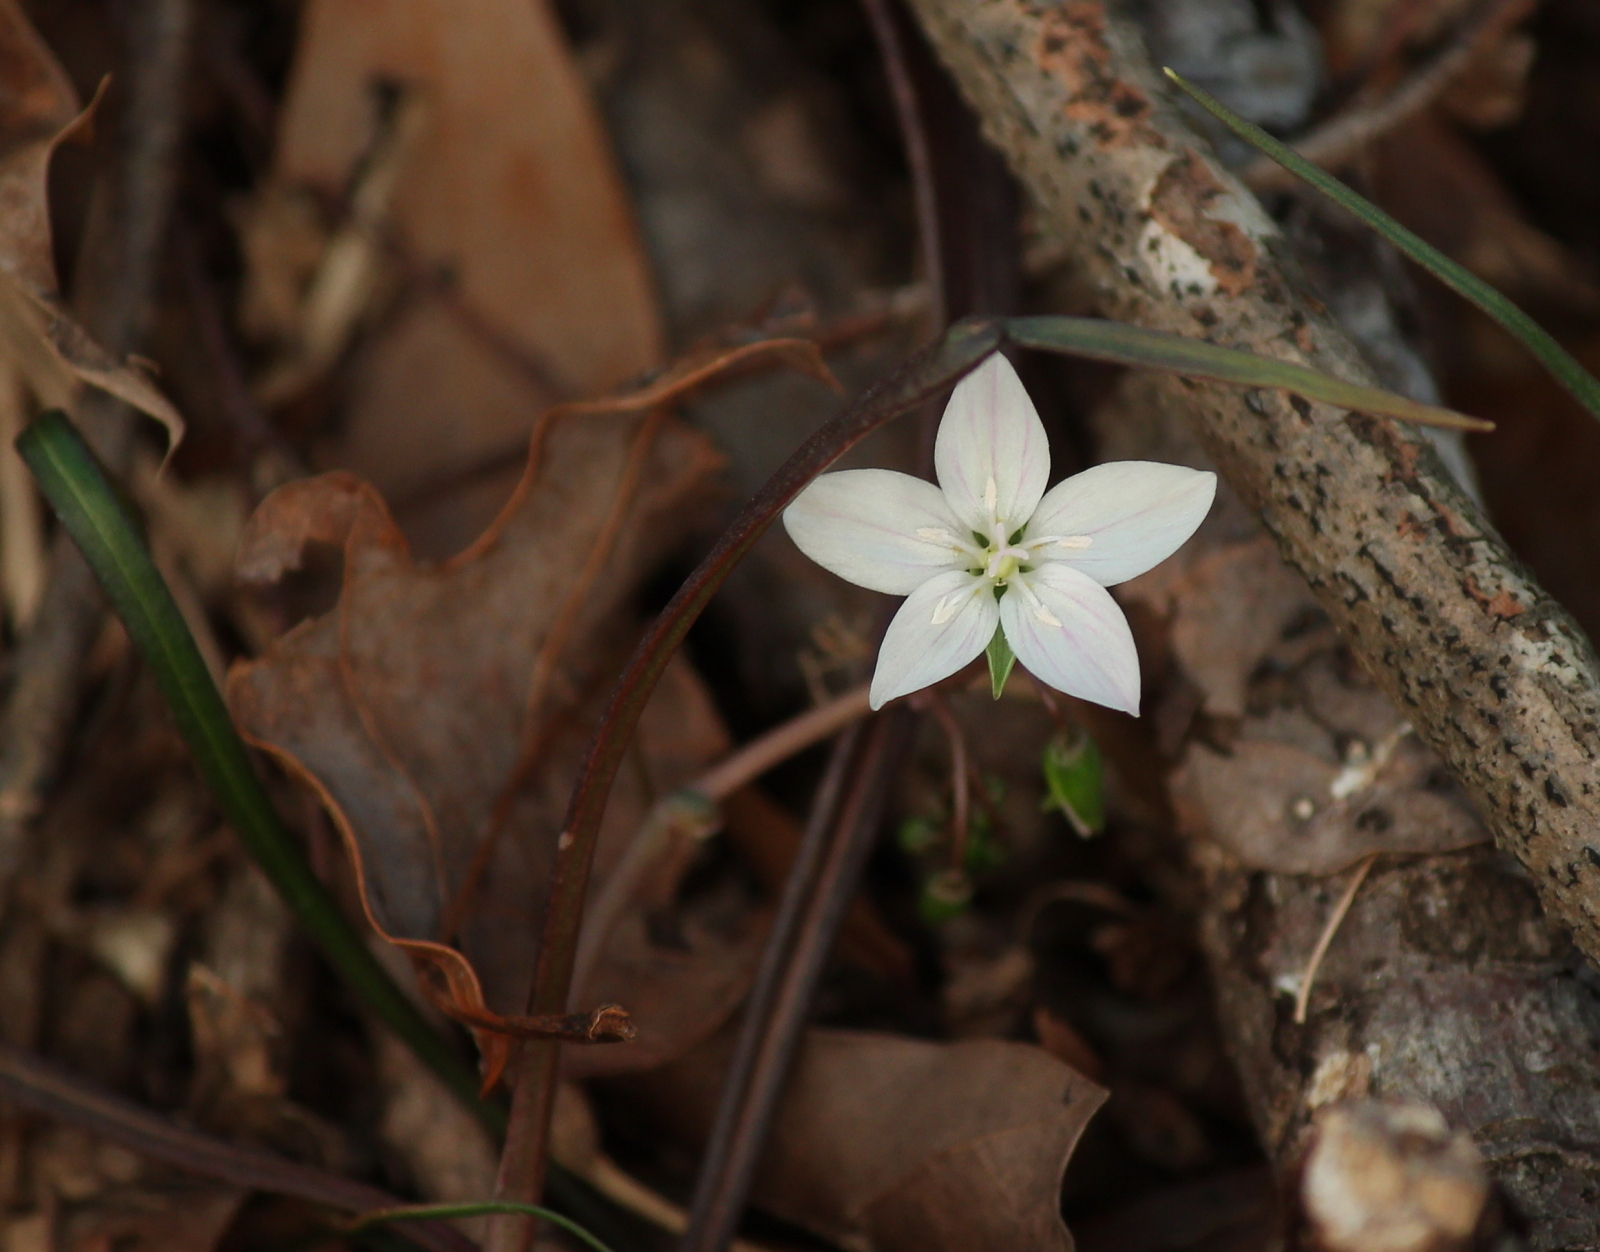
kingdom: Plantae
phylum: Tracheophyta
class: Magnoliopsida
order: Caryophyllales
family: Montiaceae
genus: Claytonia
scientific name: Claytonia virginica
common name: Virginia springbeauty
